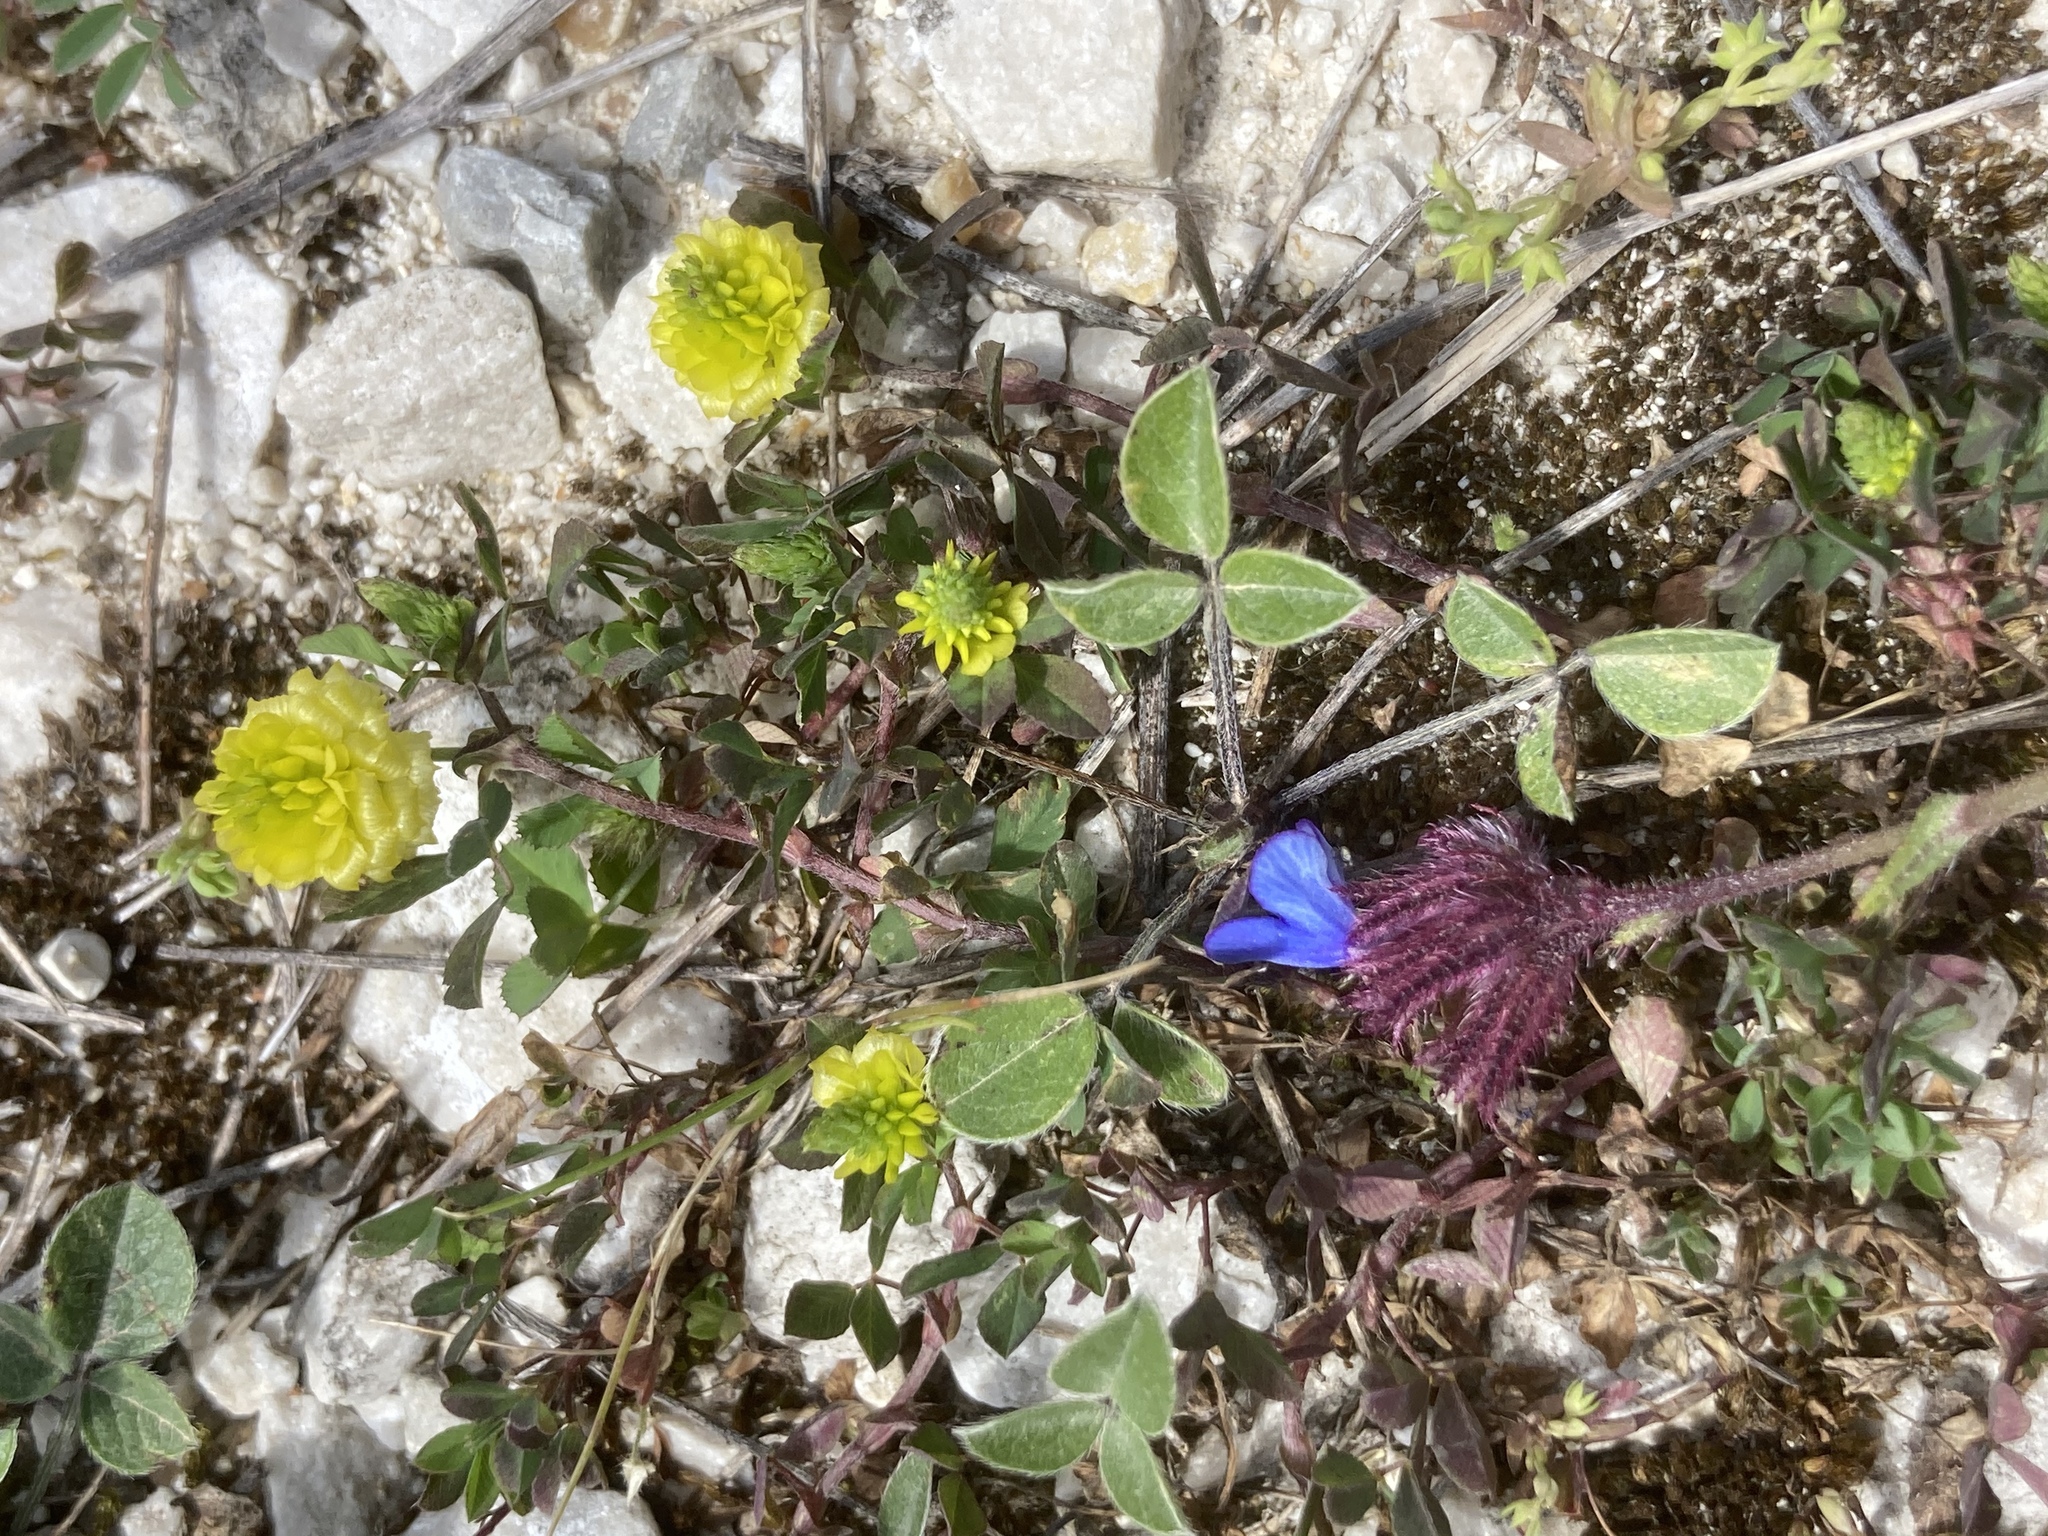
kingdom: Plantae
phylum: Tracheophyta
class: Magnoliopsida
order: Fabales
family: Fabaceae
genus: Bituminaria
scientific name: Bituminaria bituminosa
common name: Arabian pea
